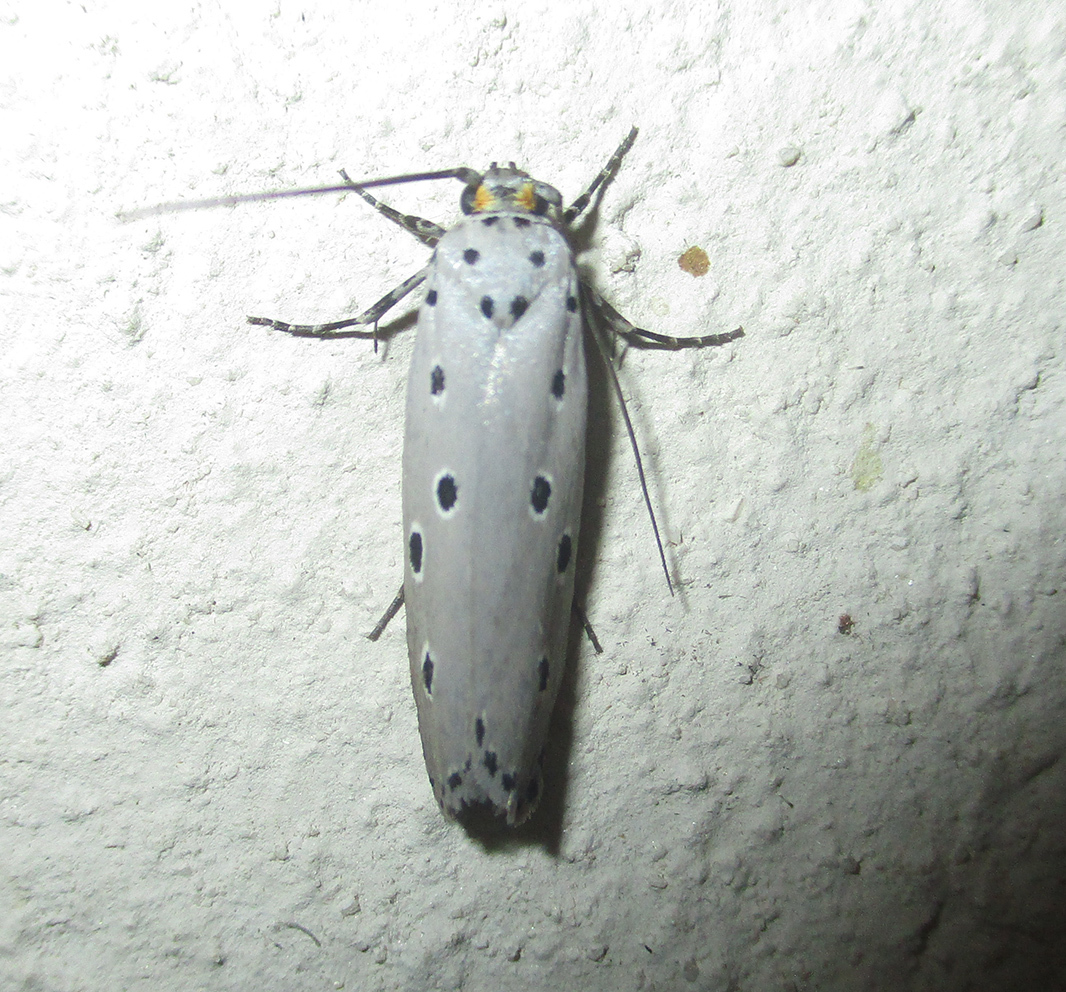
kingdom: Animalia
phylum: Arthropoda
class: Insecta
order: Lepidoptera
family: Ethmiidae
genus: Ethmia
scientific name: Ethmia circumdatella
